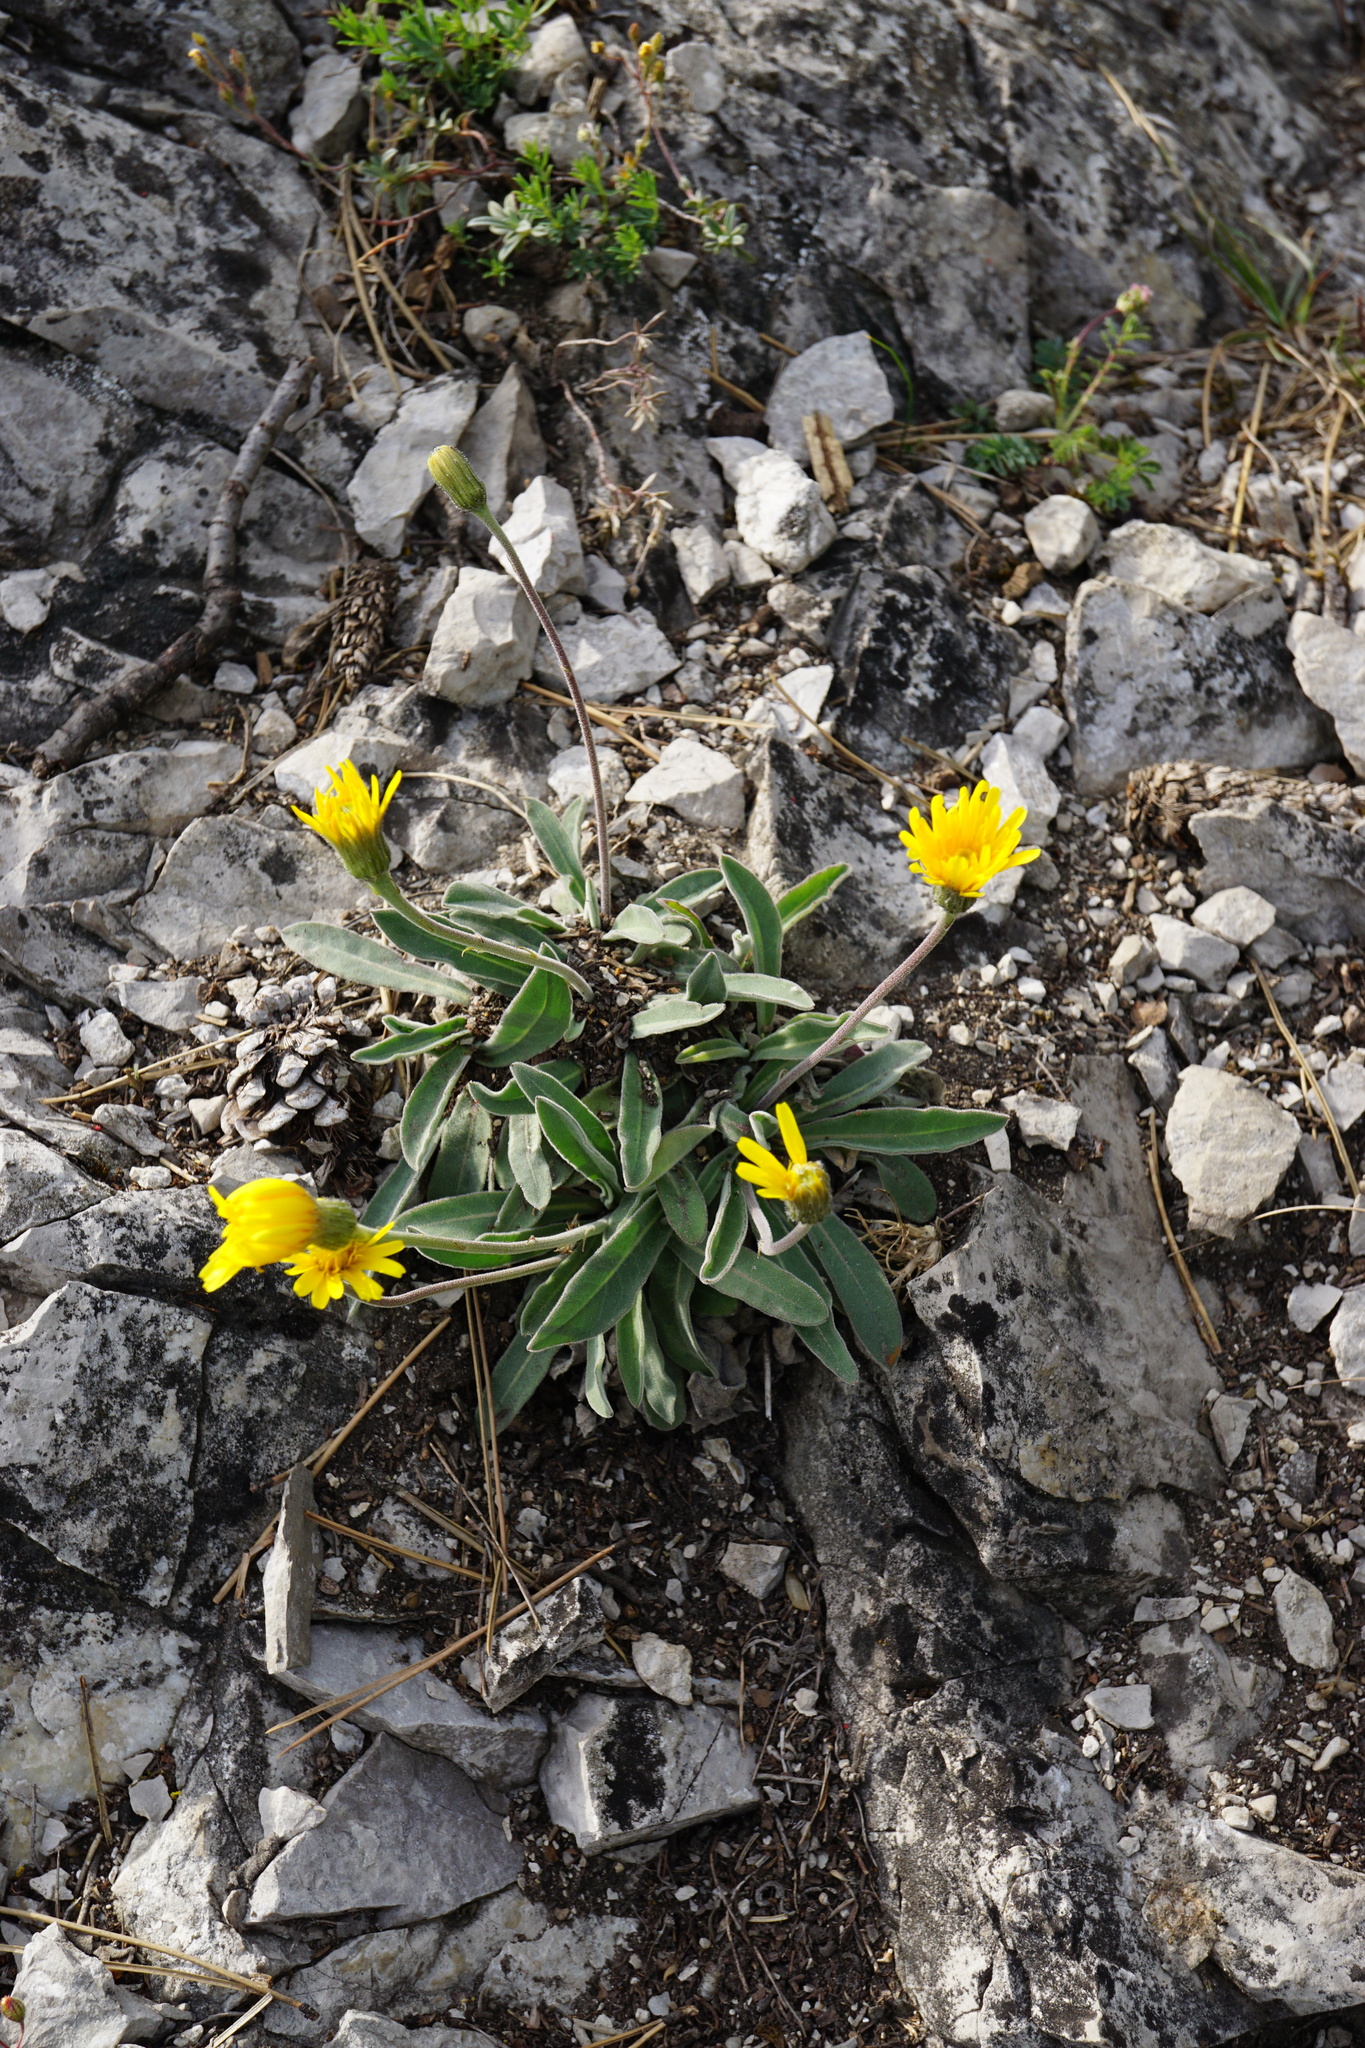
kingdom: Plantae
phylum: Tracheophyta
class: Magnoliopsida
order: Asterales
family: Asteraceae
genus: Leontodon
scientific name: Leontodon incanus
